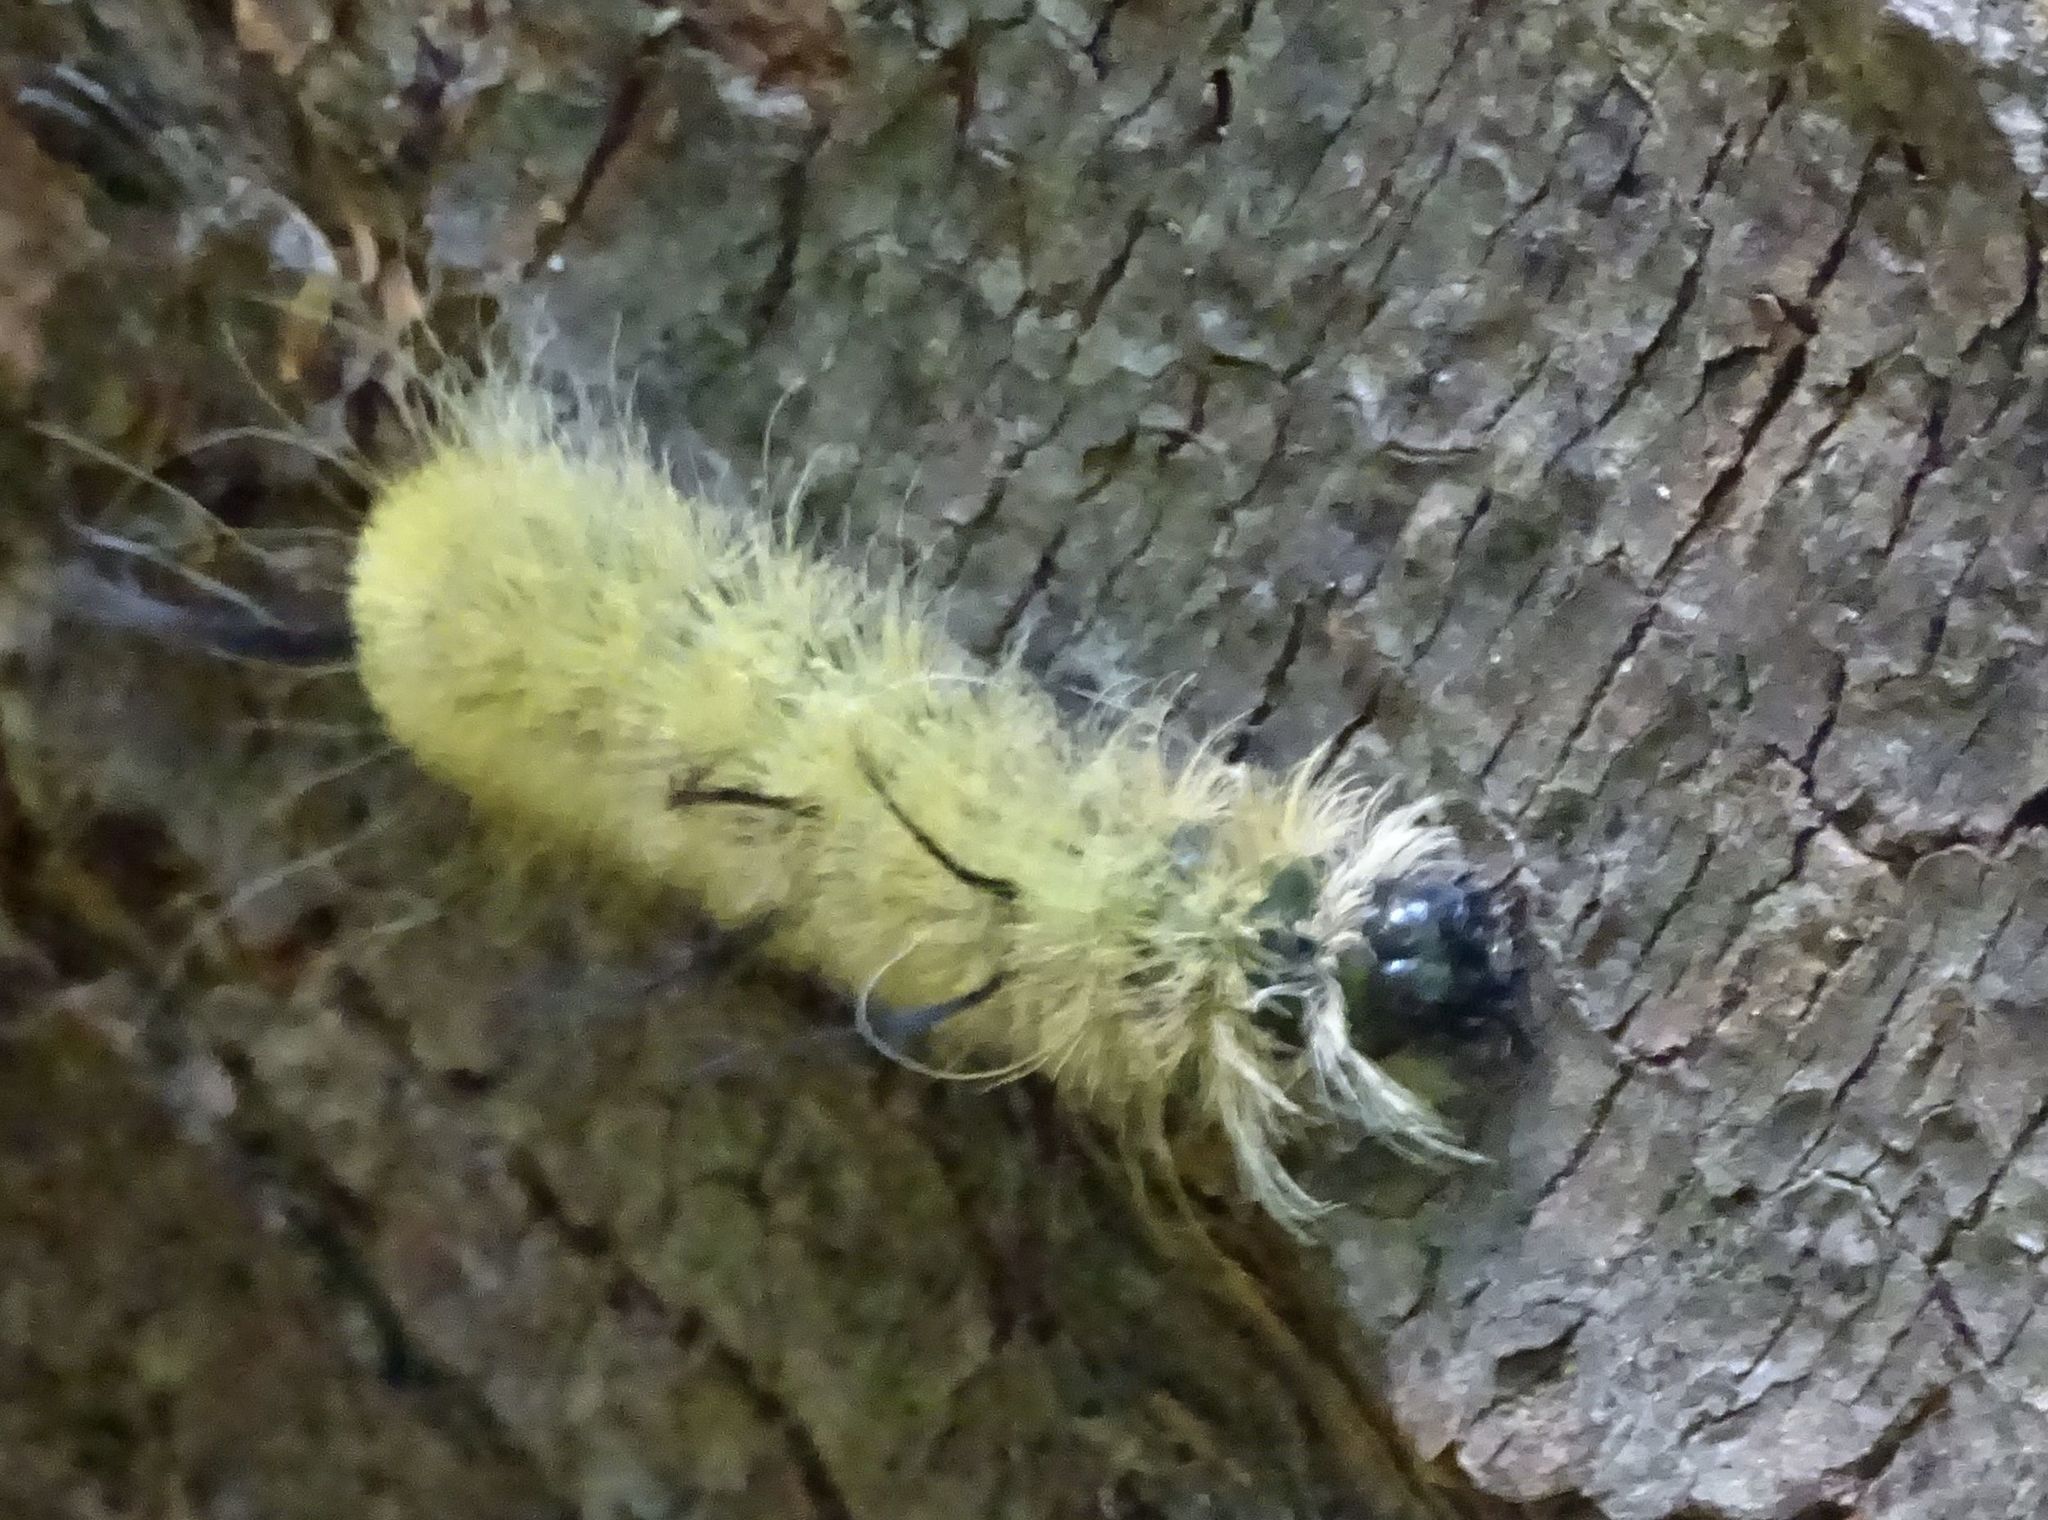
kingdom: Animalia
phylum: Arthropoda
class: Insecta
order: Lepidoptera
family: Noctuidae
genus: Acronicta
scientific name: Acronicta americana
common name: American dagger
